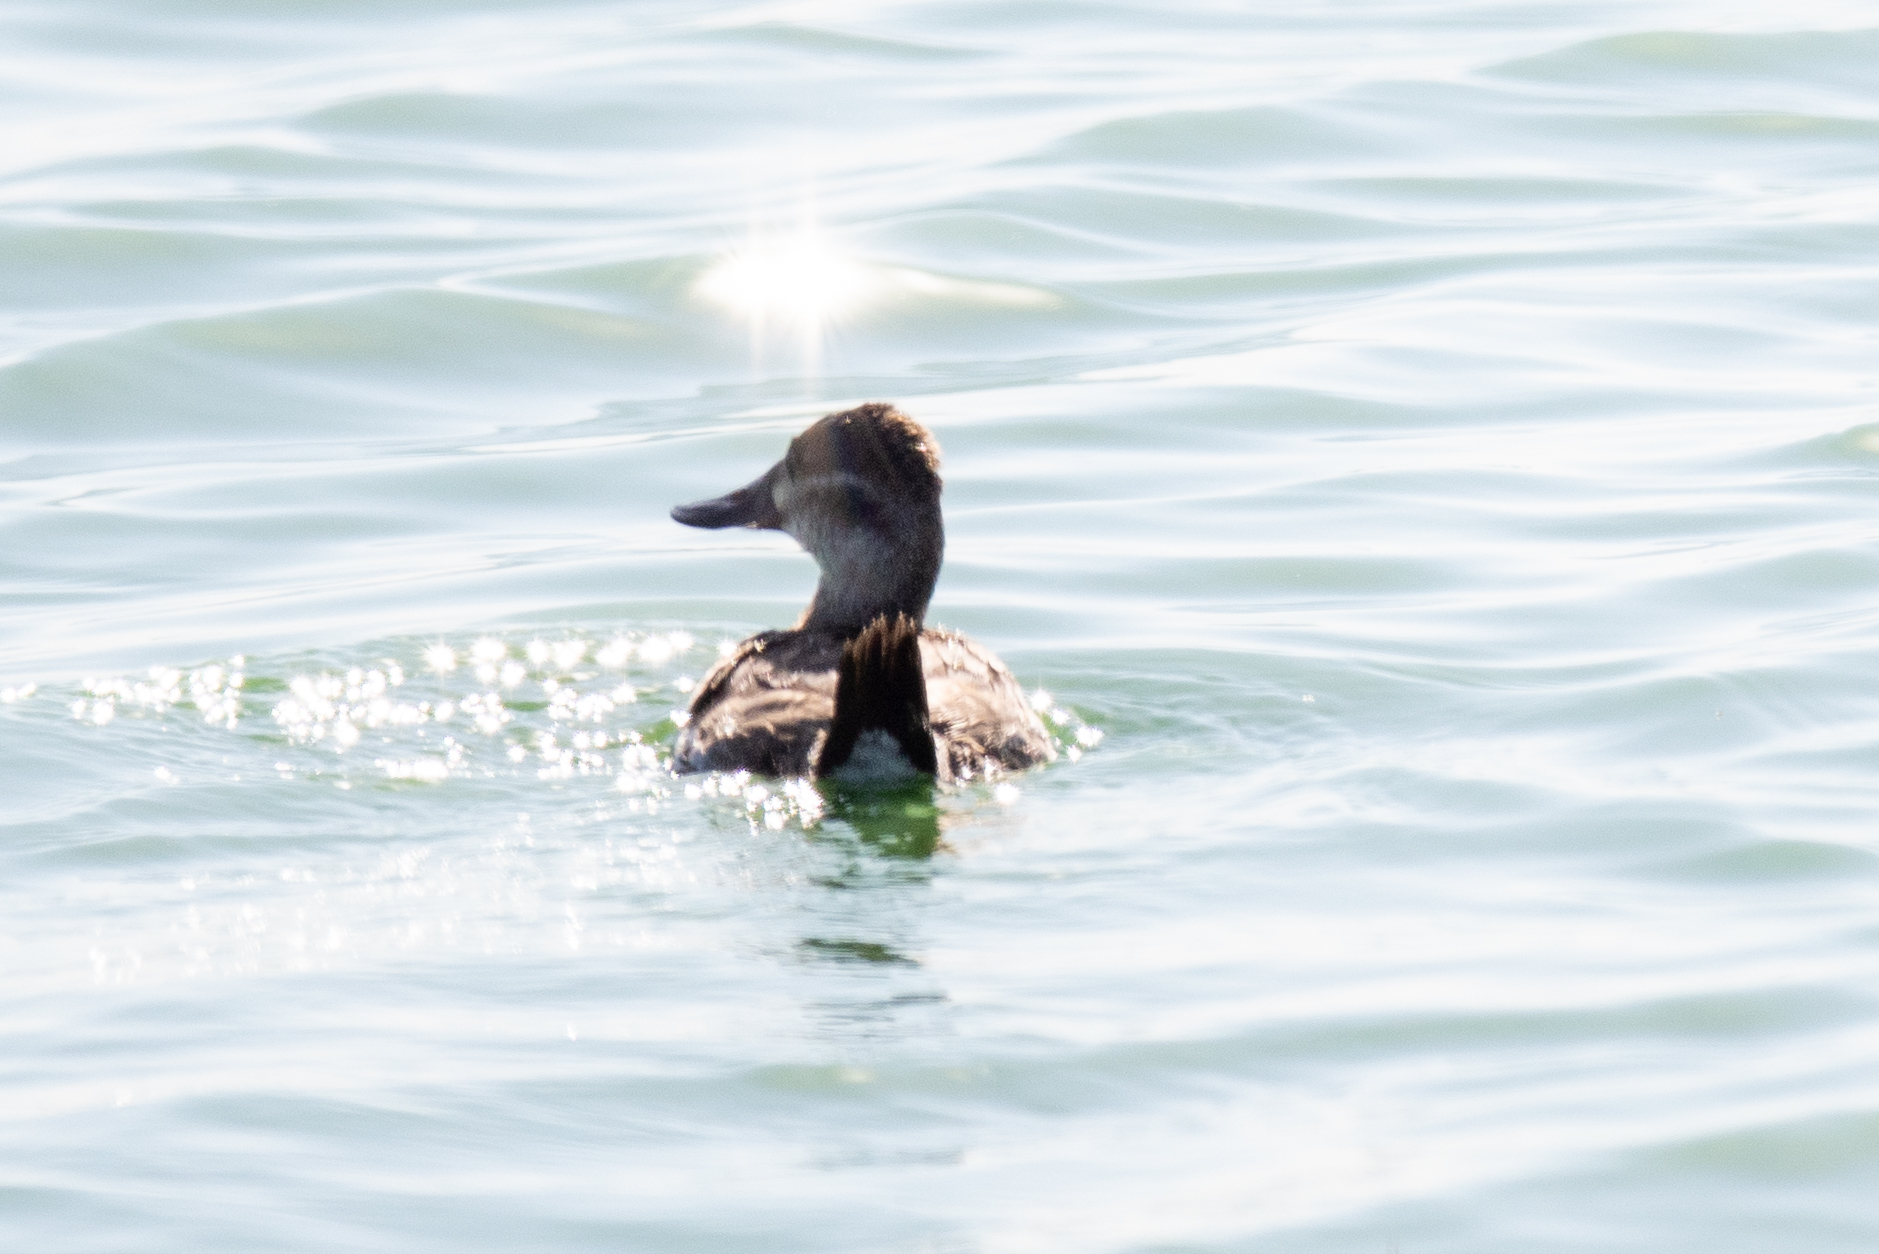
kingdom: Animalia
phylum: Chordata
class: Aves
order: Anseriformes
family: Anatidae
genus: Oxyura
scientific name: Oxyura jamaicensis
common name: Ruddy duck
